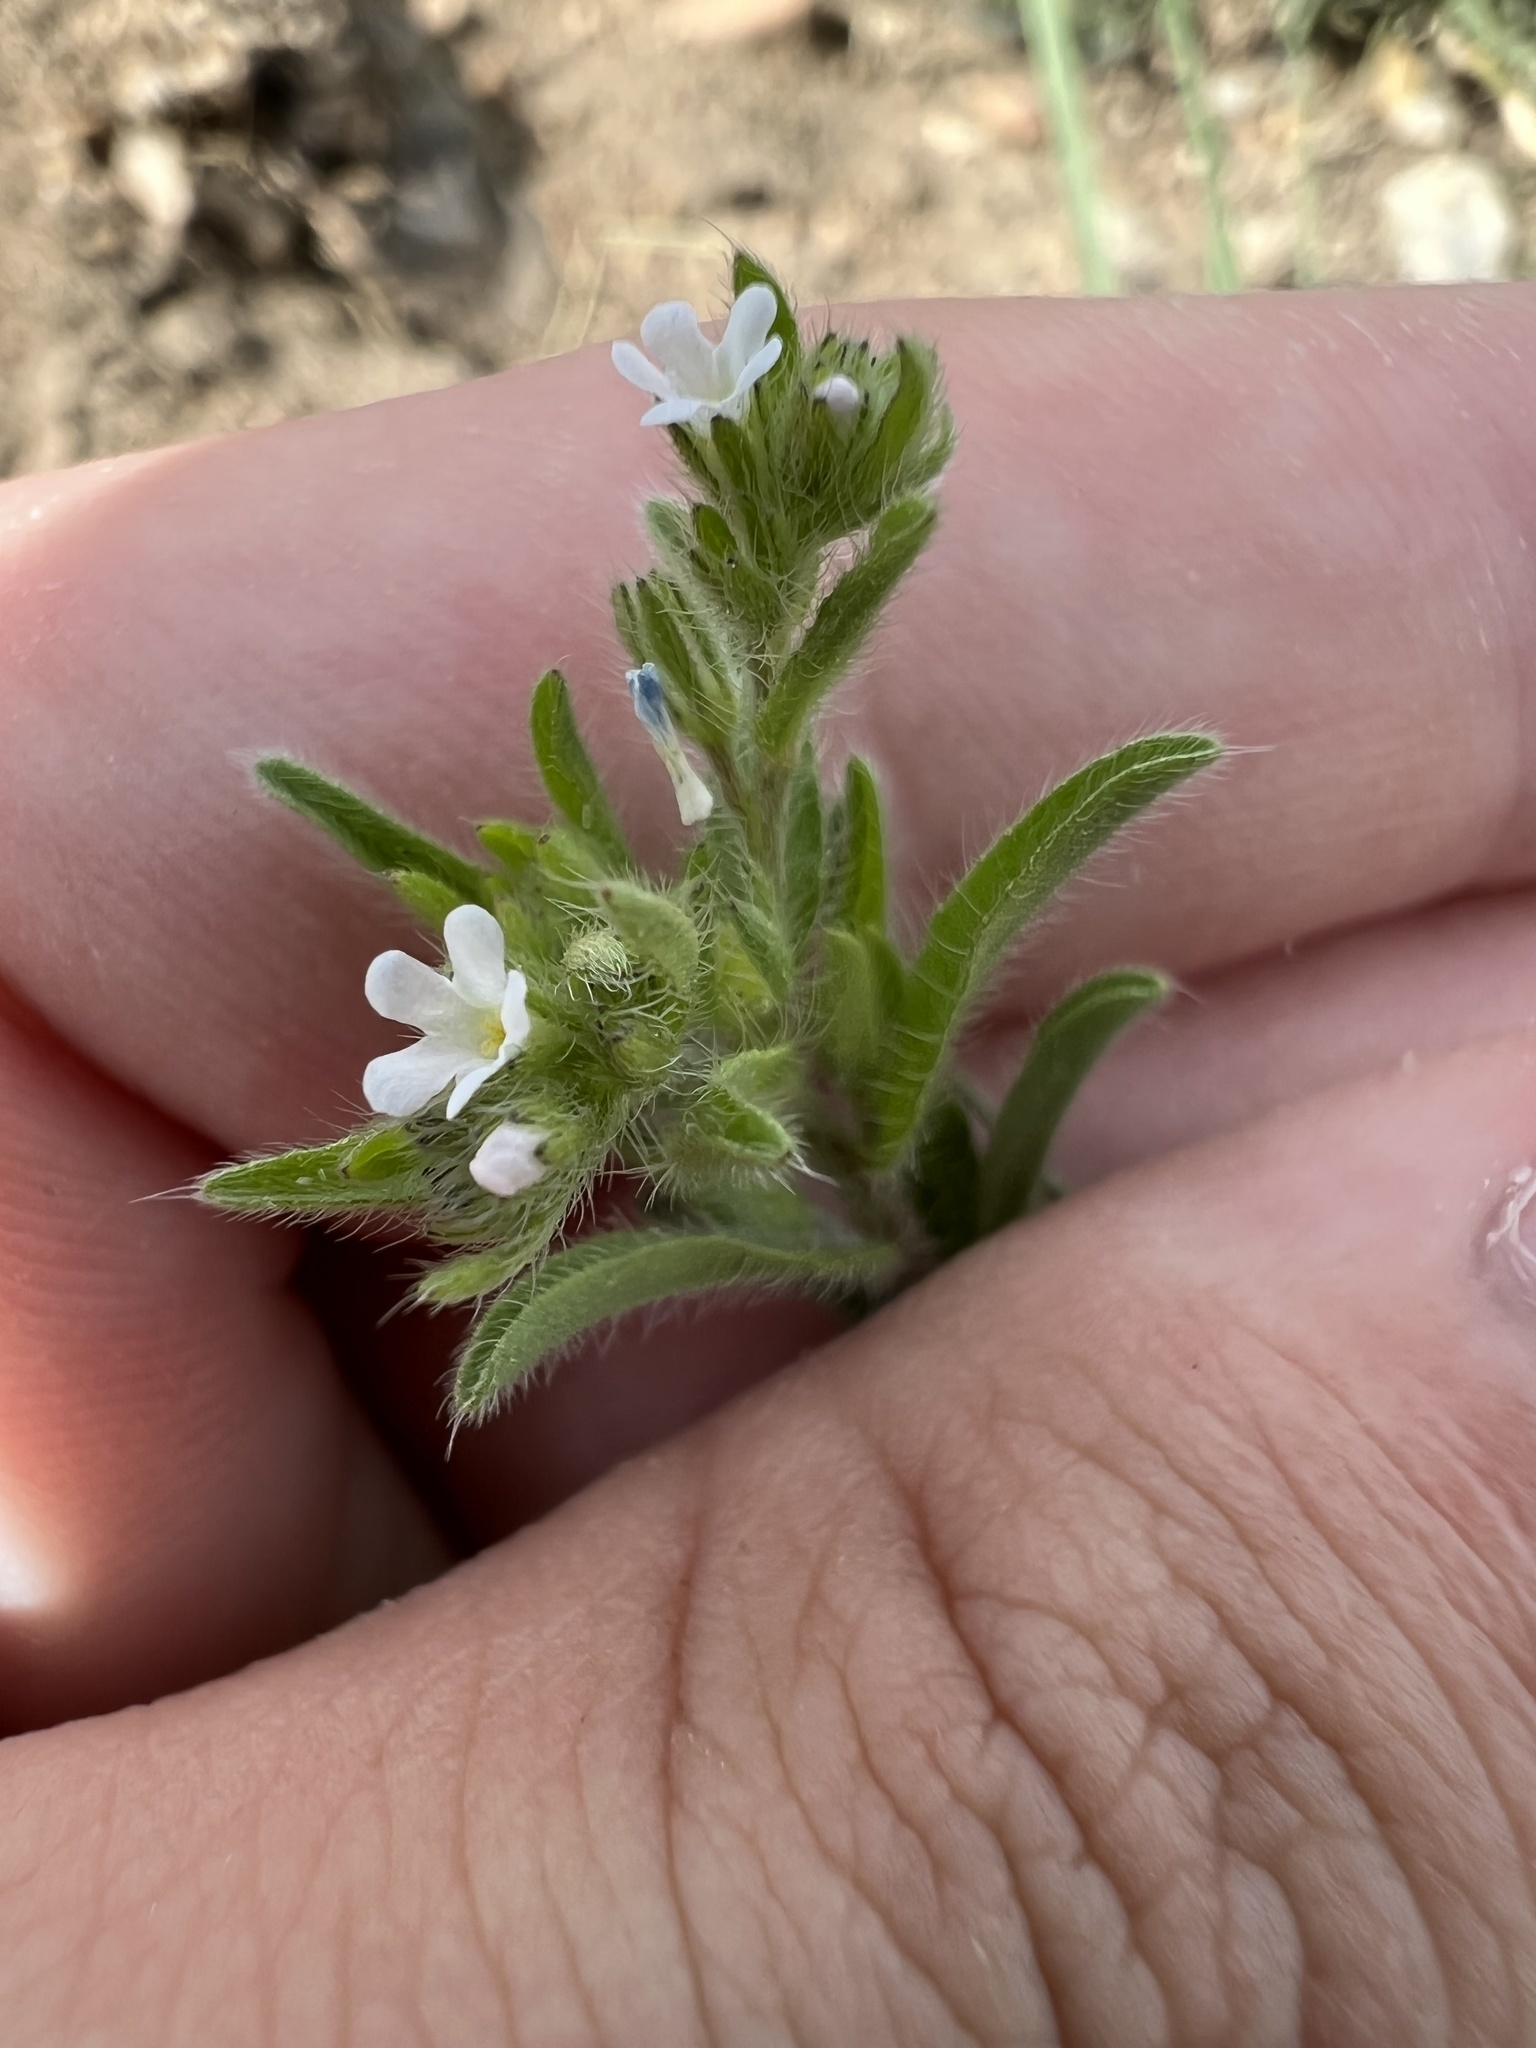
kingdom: Plantae
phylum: Tracheophyta
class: Magnoliopsida
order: Boraginales
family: Boraginaceae
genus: Lappula
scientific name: Lappula occidentalis
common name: Western stickseed
